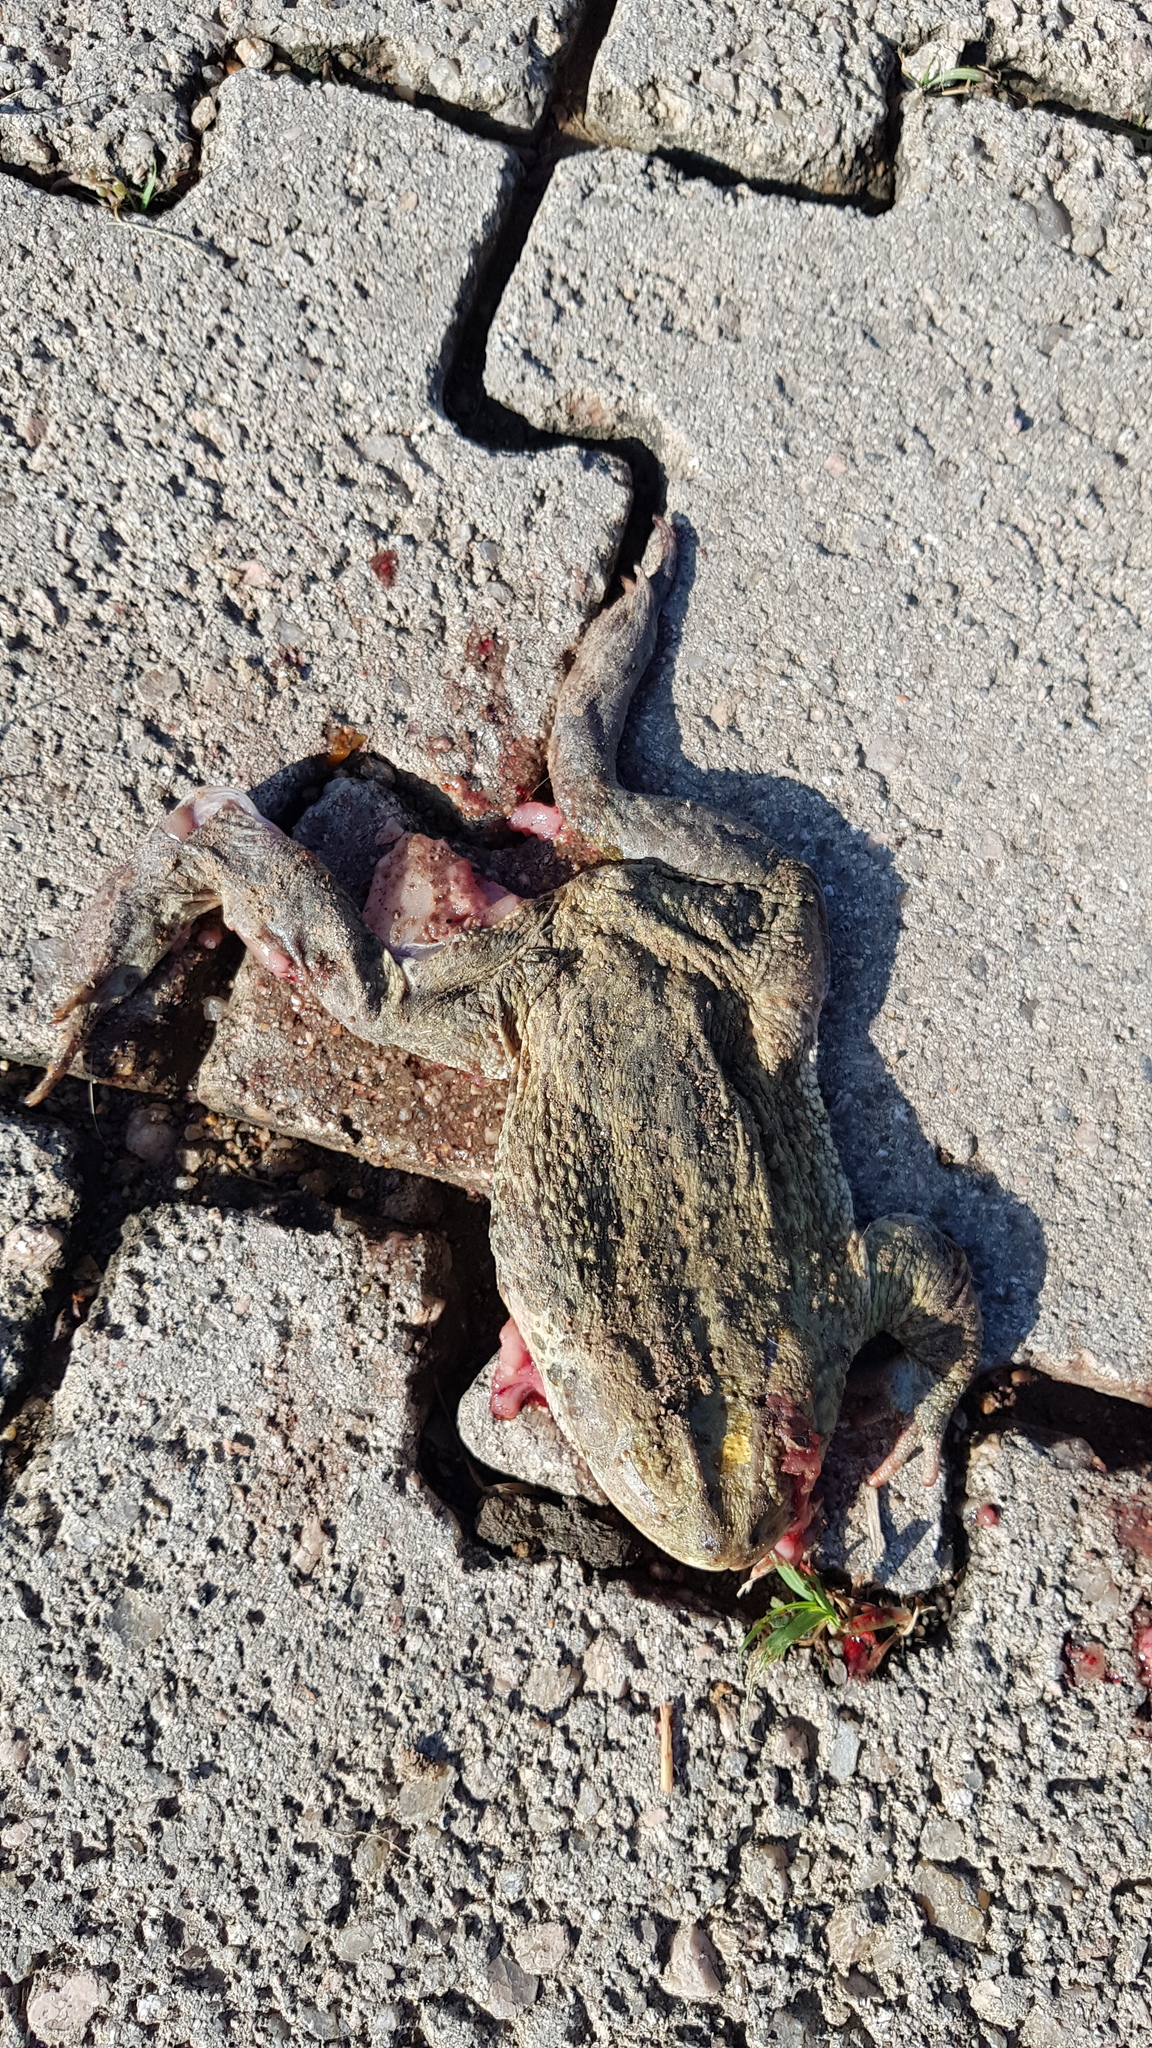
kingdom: Animalia
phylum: Chordata
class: Amphibia
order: Anura
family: Bufonidae
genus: Rhinella
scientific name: Rhinella horribilis
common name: Mesoamerican cane toad
